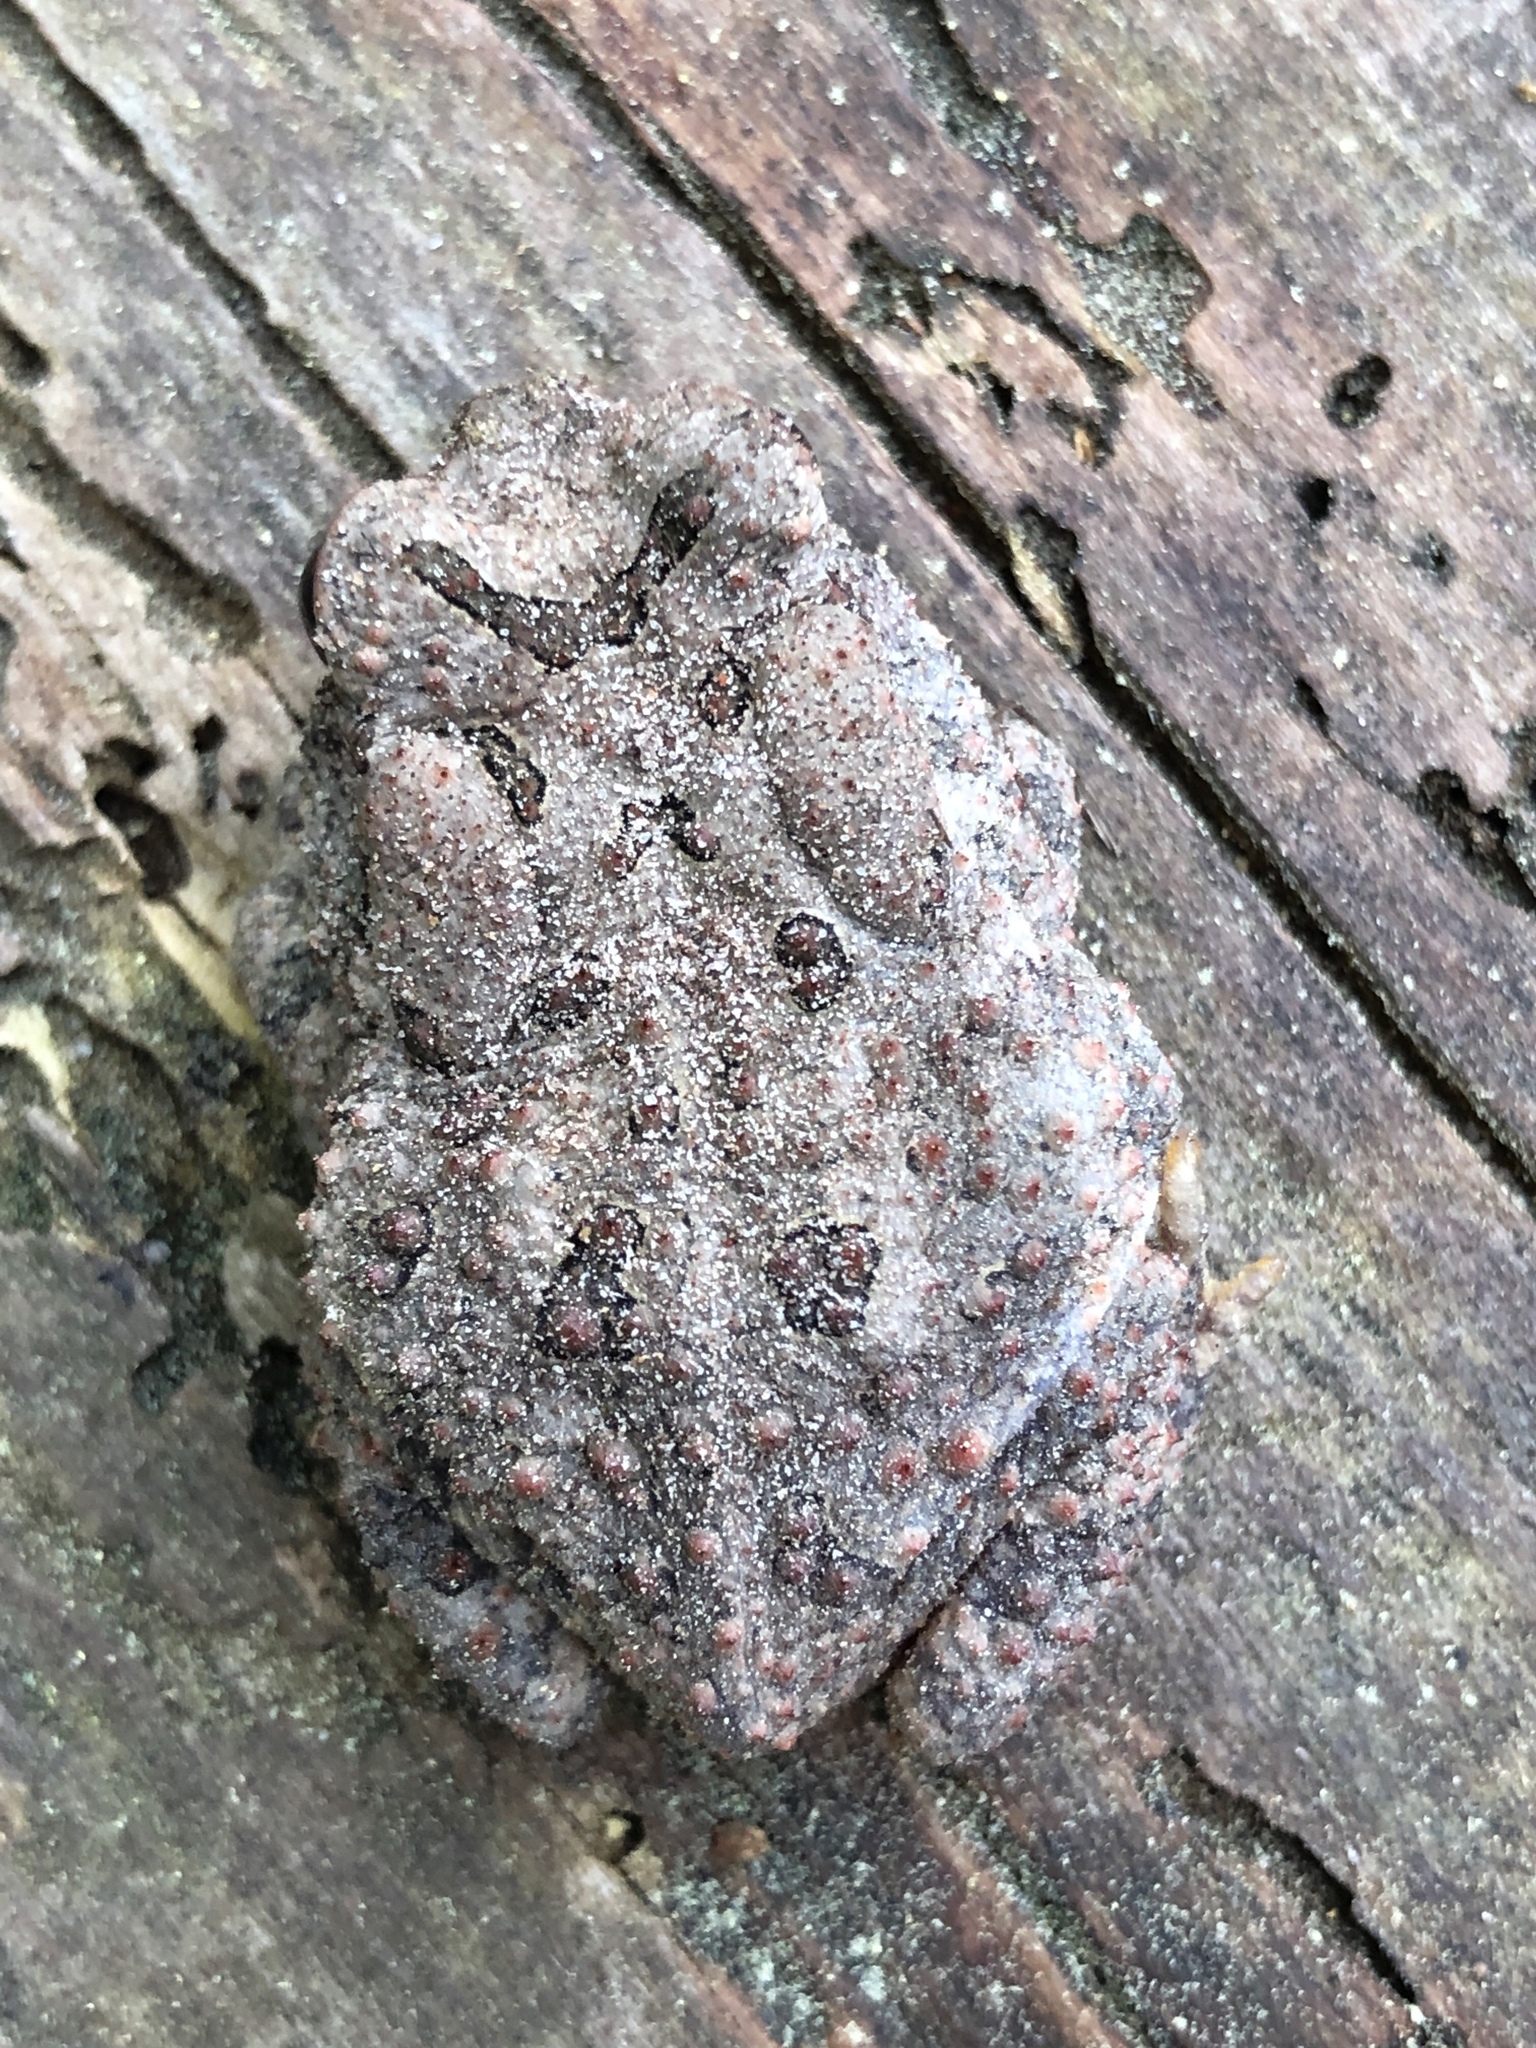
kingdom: Animalia
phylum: Chordata
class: Amphibia
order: Anura
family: Bufonidae
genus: Anaxyrus
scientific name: Anaxyrus fowleri
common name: Fowler's toad
